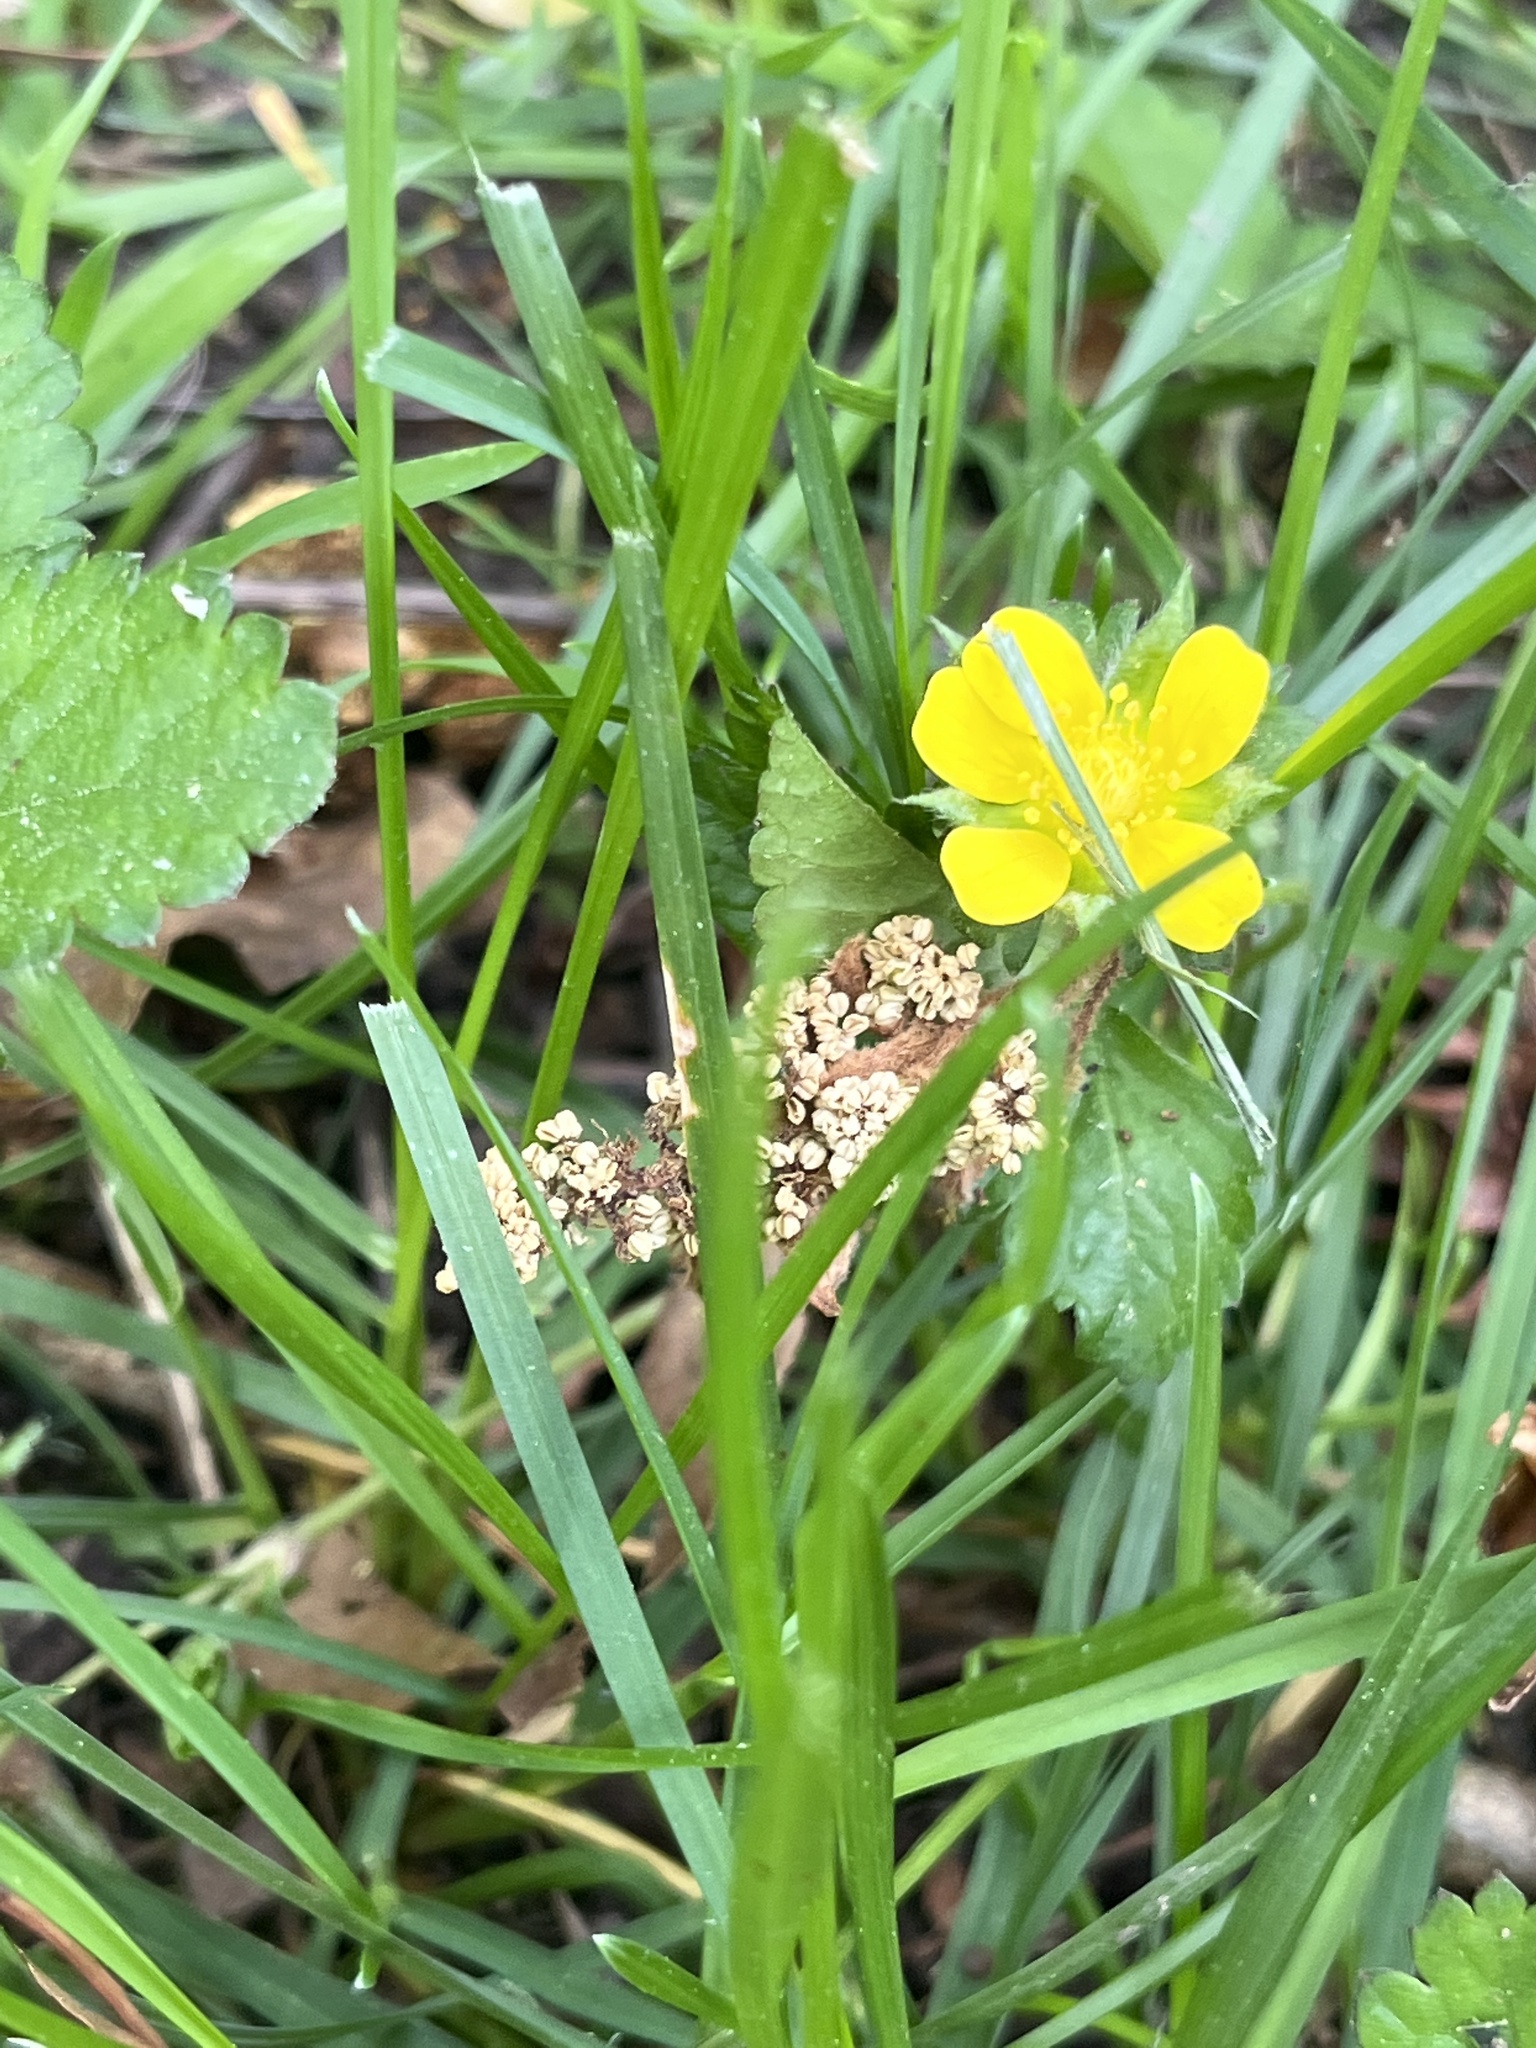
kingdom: Plantae
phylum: Tracheophyta
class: Magnoliopsida
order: Rosales
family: Rosaceae
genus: Potentilla
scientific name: Potentilla indica
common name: Yellow-flowered strawberry
